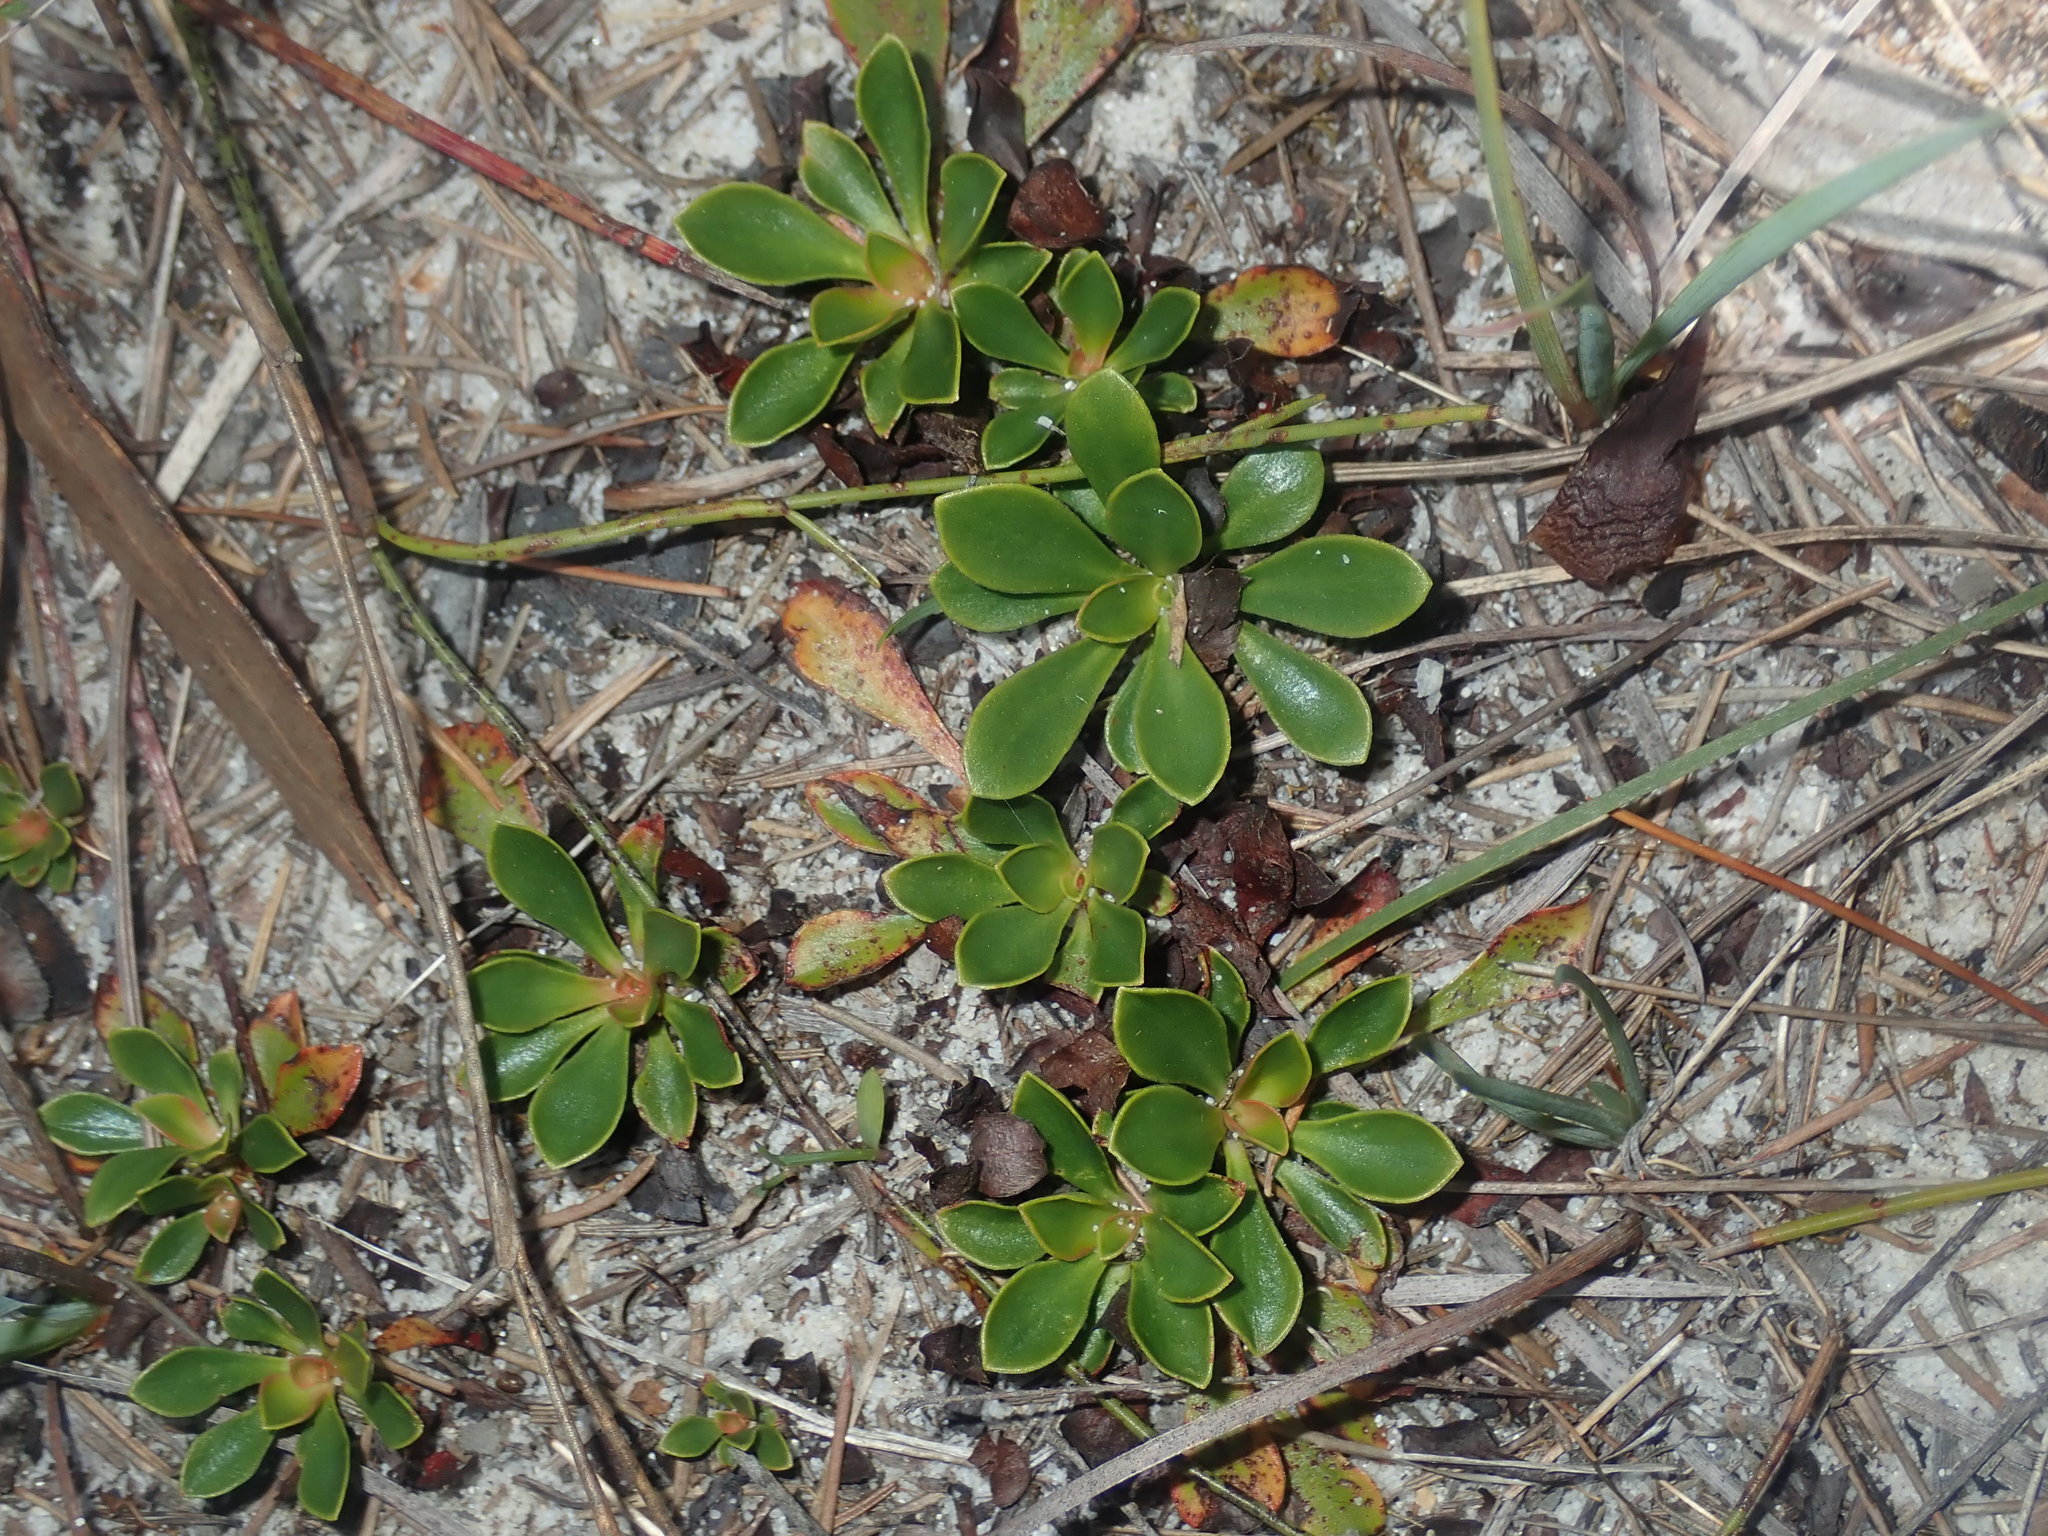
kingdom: Plantae
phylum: Tracheophyta
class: Magnoliopsida
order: Asterales
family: Stylidiaceae
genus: Stylidium
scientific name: Stylidium ornatum
